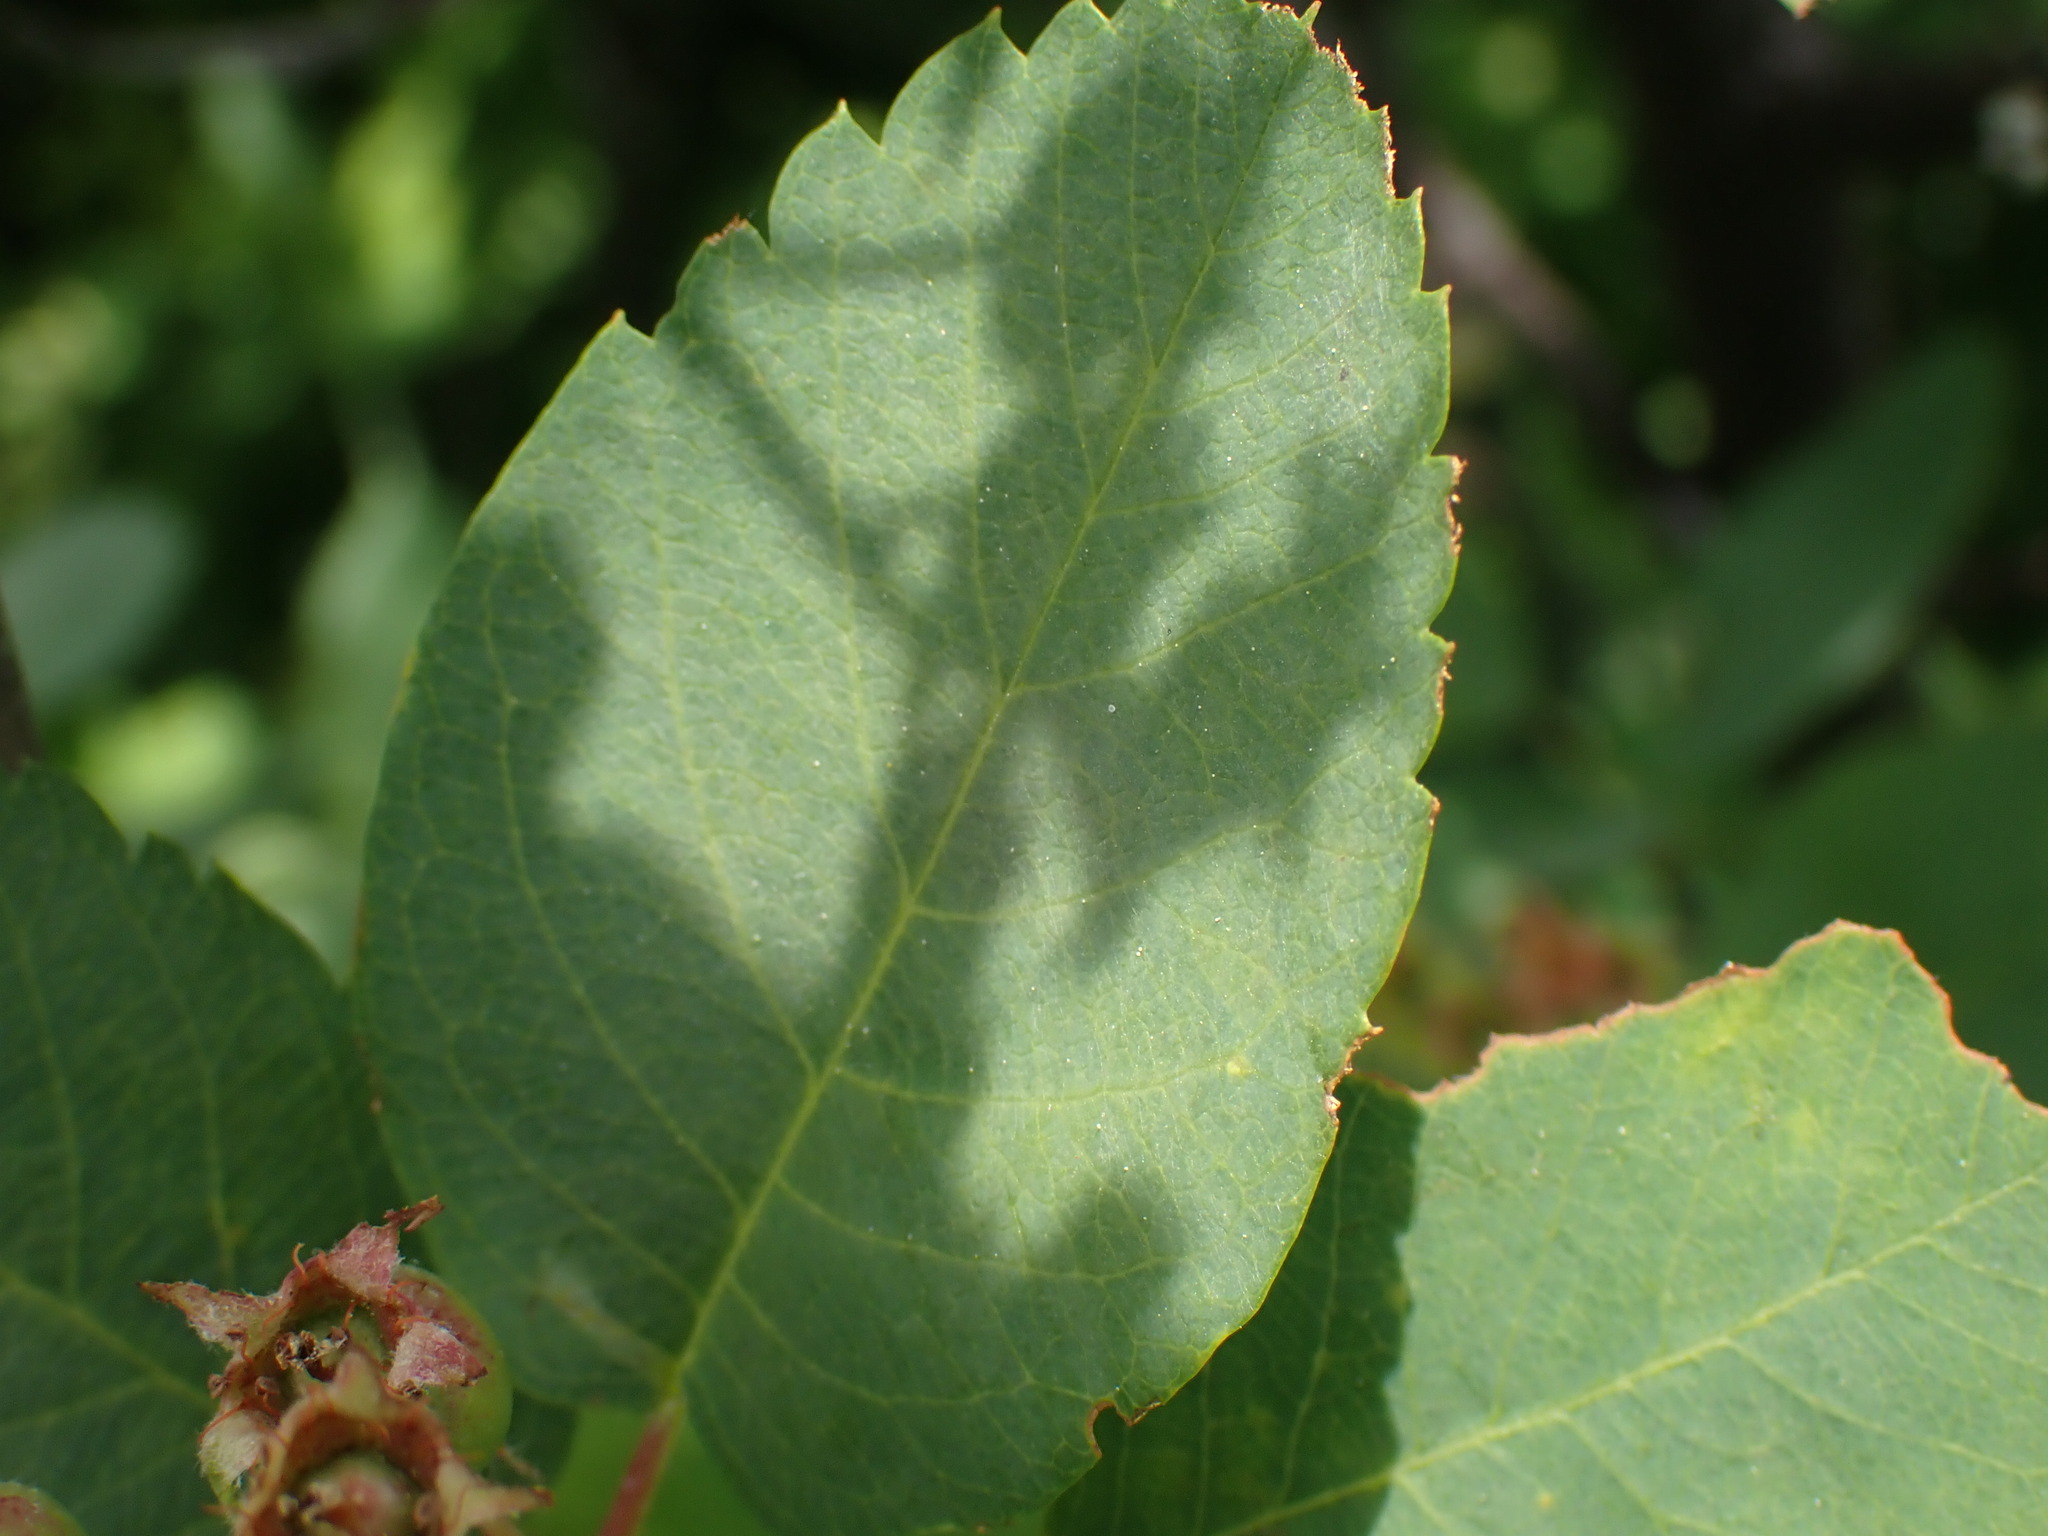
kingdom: Plantae
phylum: Tracheophyta
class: Magnoliopsida
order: Rosales
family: Rosaceae
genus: Amelanchier
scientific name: Amelanchier alnifolia
